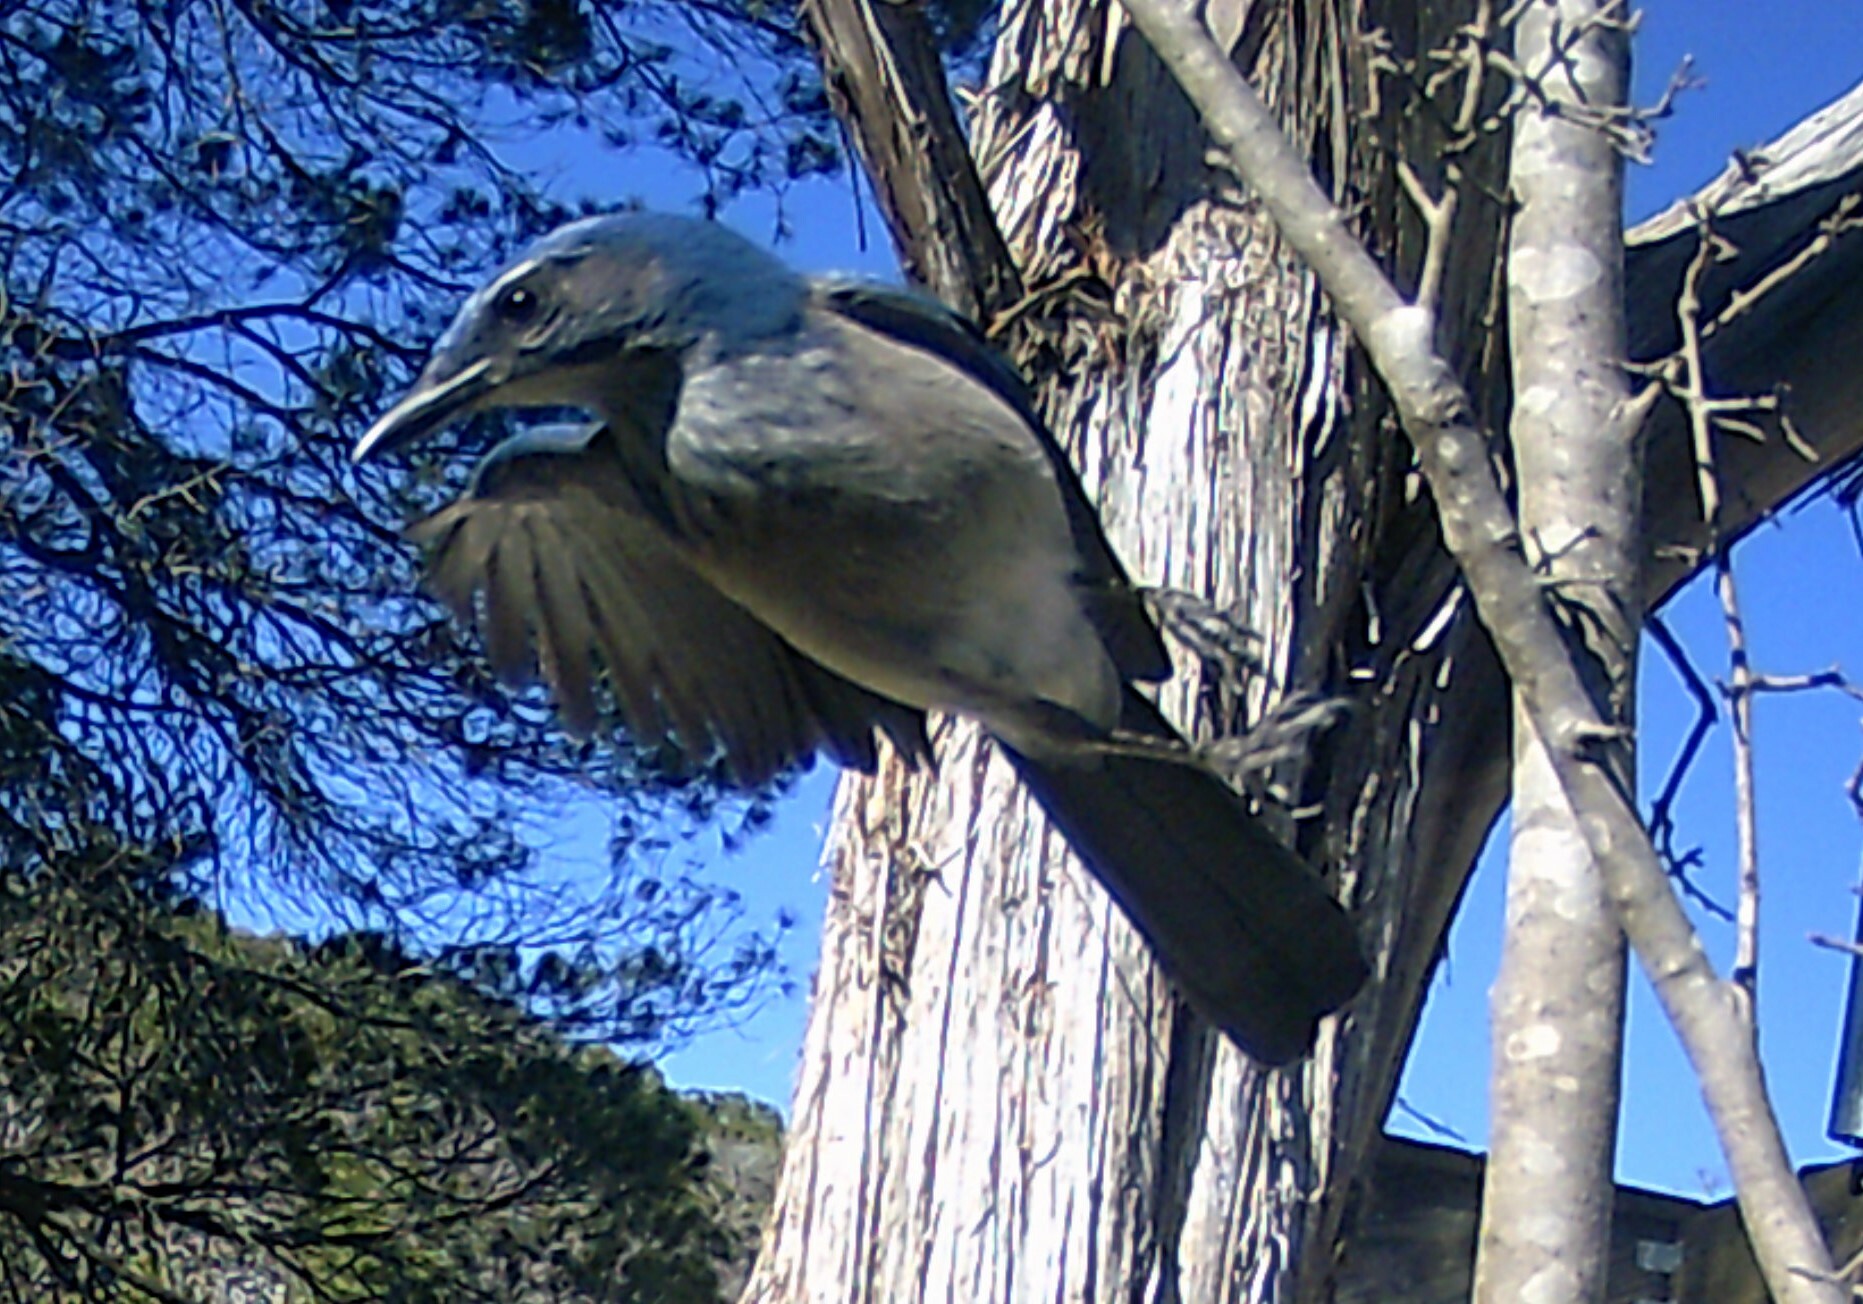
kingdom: Animalia
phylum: Chordata
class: Aves
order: Passeriformes
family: Corvidae
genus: Aphelocoma
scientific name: Aphelocoma woodhouseii
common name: Woodhouse's scrub-jay
